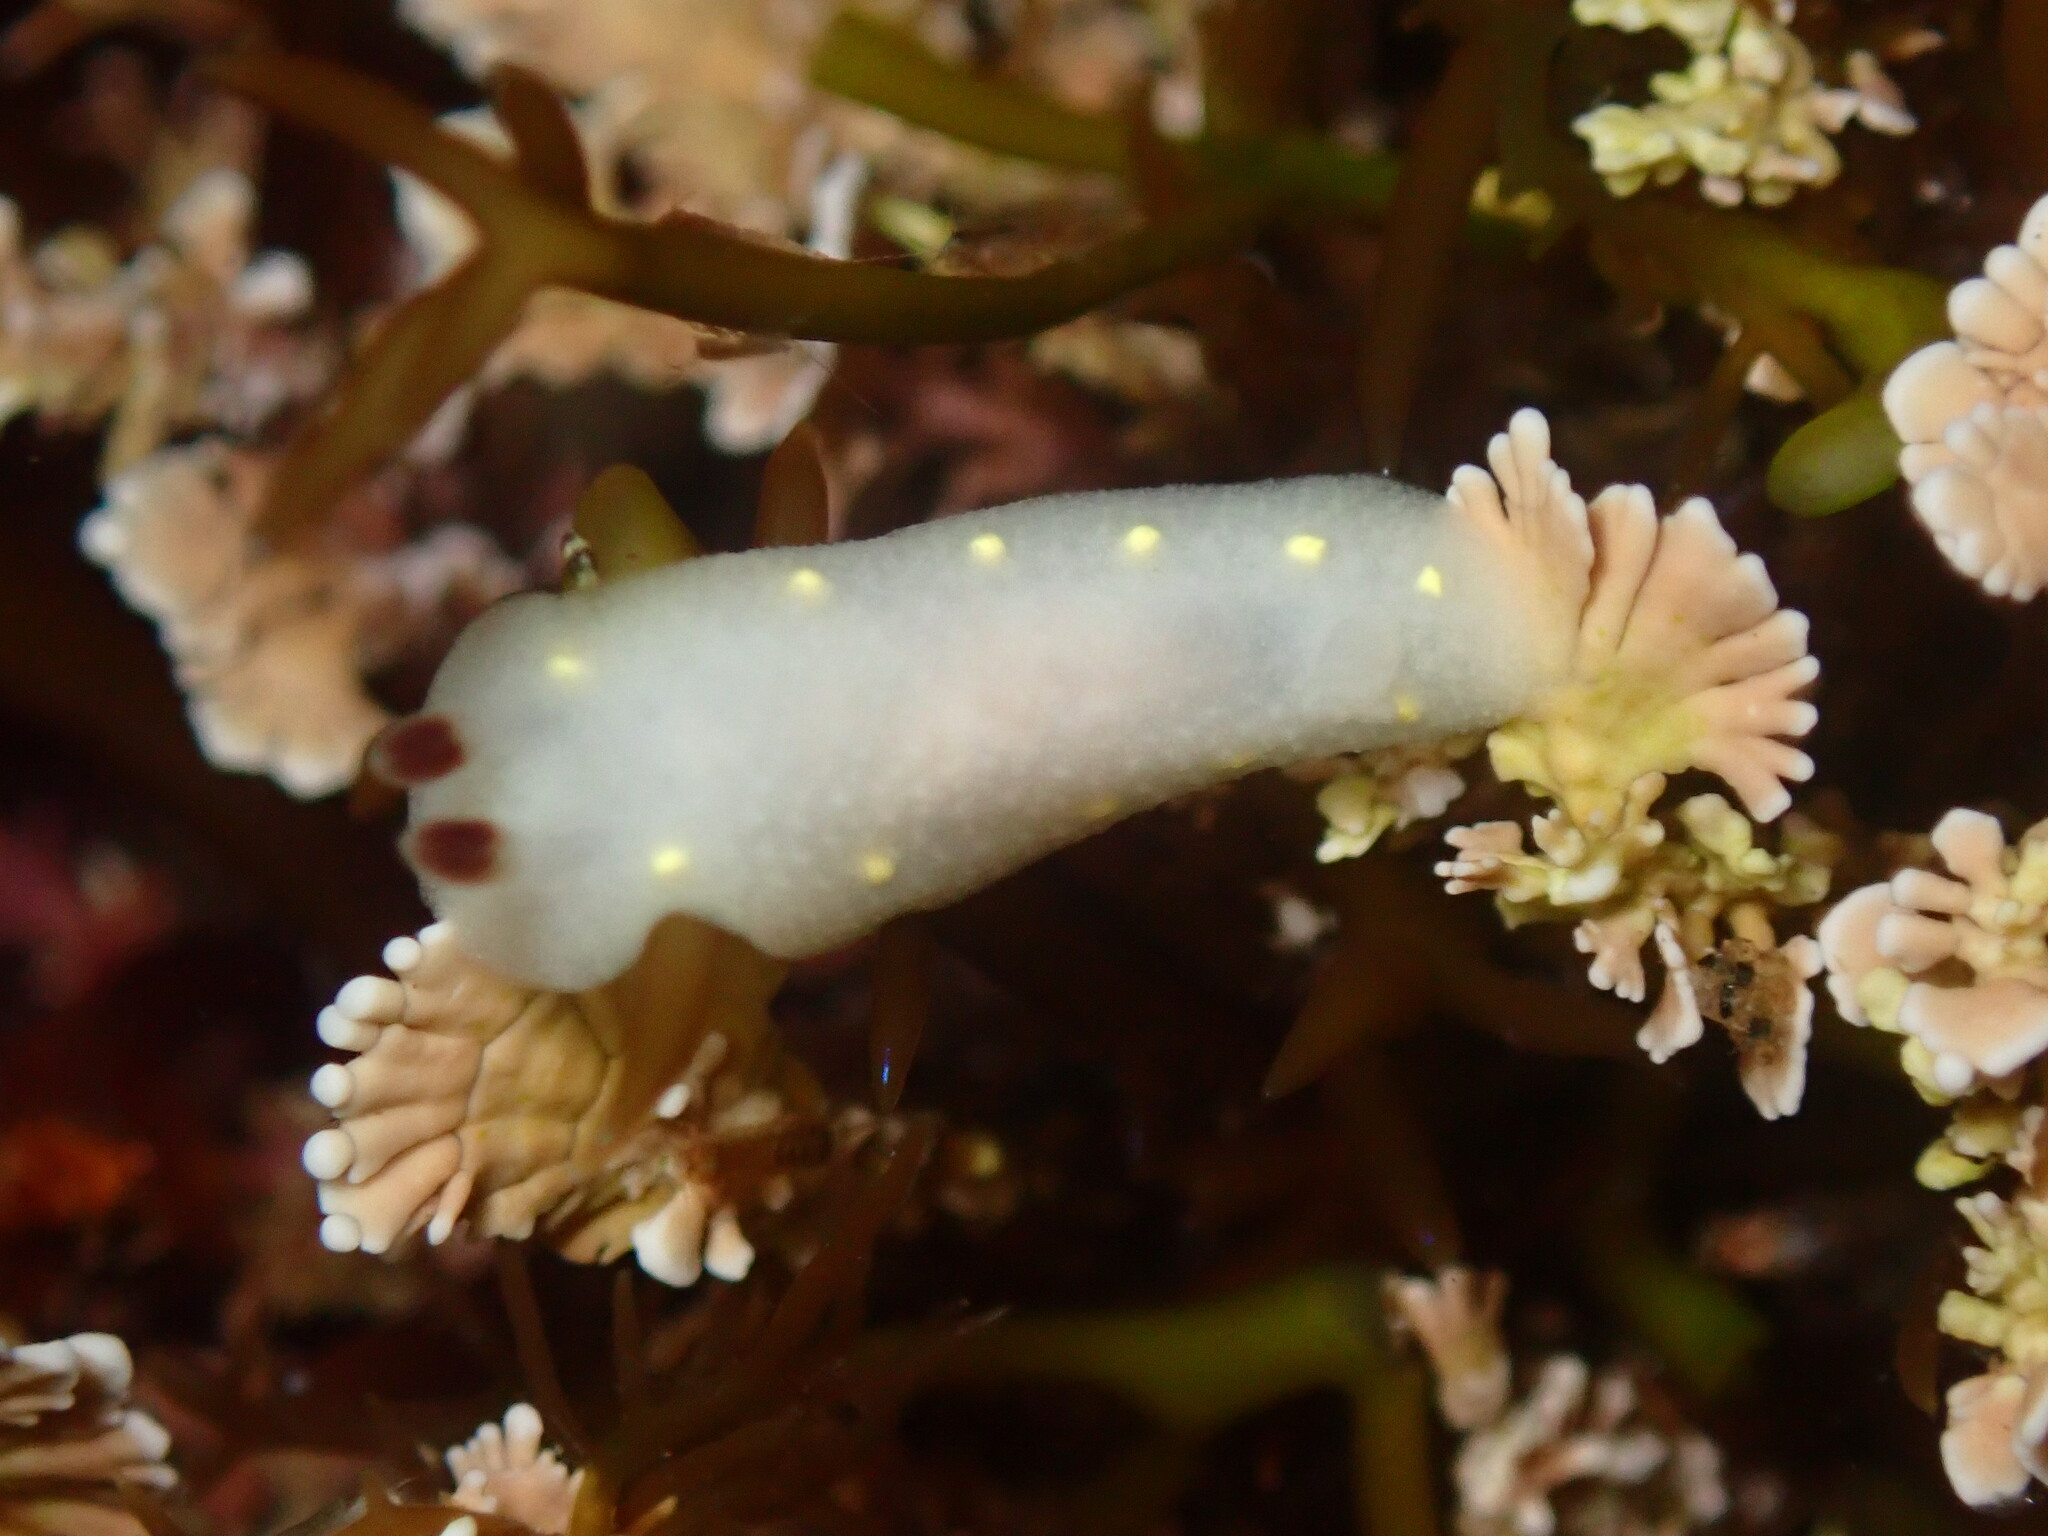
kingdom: Animalia
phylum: Mollusca
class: Gastropoda
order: Nudibranchia
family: Cadlinidae
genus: Cadlina
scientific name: Cadlina flavomaculata
